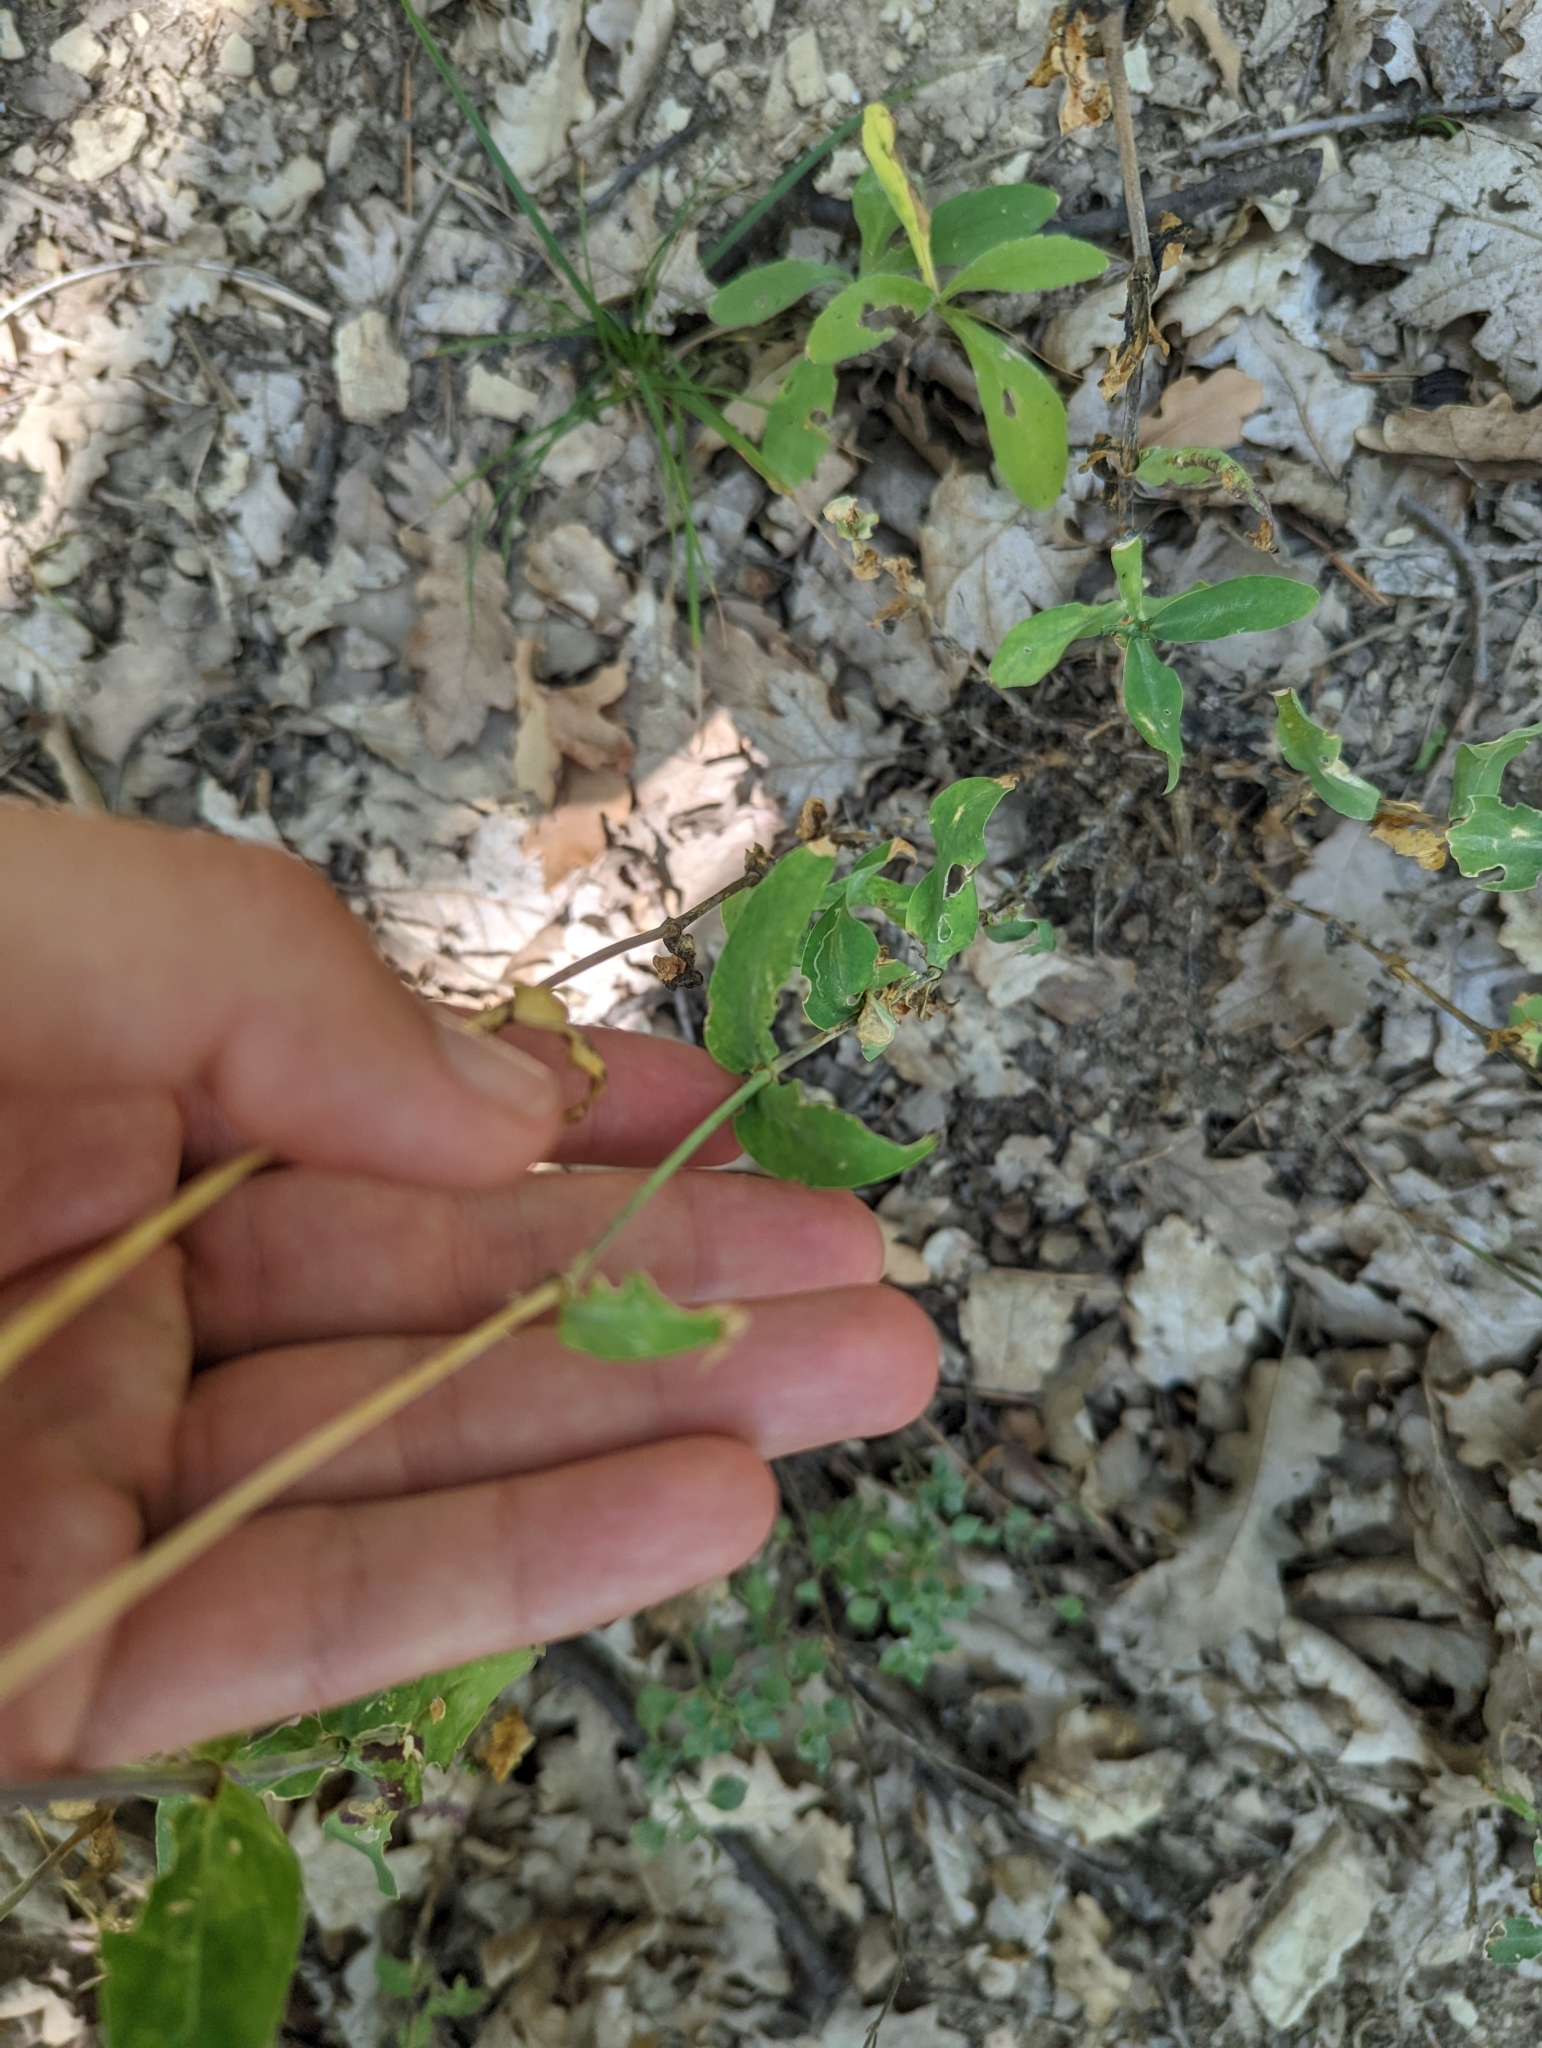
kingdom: Plantae
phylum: Tracheophyta
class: Magnoliopsida
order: Caryophyllales
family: Caryophyllaceae
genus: Silene
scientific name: Silene vulgaris
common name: Bladder campion
